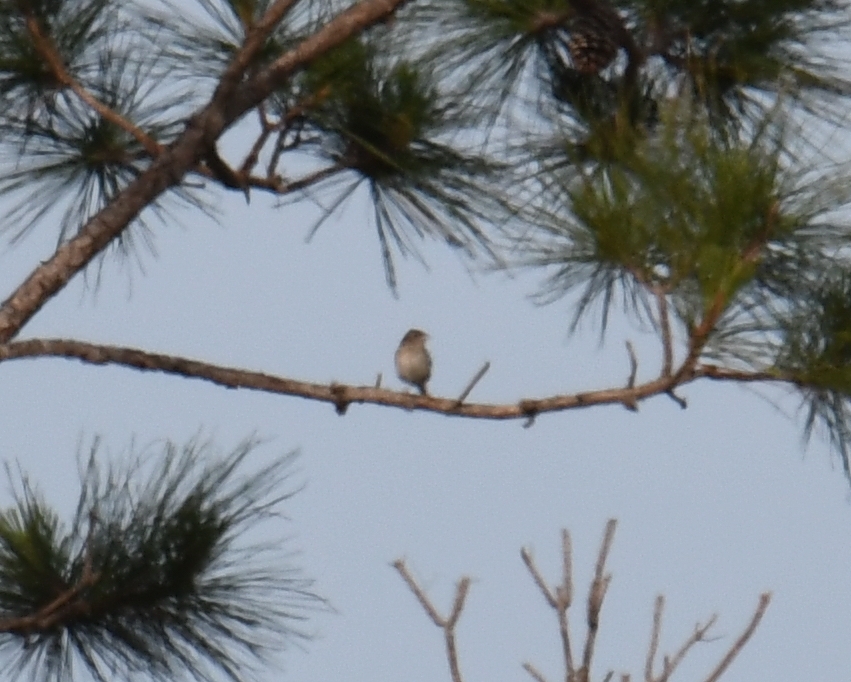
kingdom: Animalia
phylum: Chordata
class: Aves
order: Passeriformes
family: Passerellidae
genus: Peucaea
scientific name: Peucaea aestivalis
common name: Bachman's sparrow
